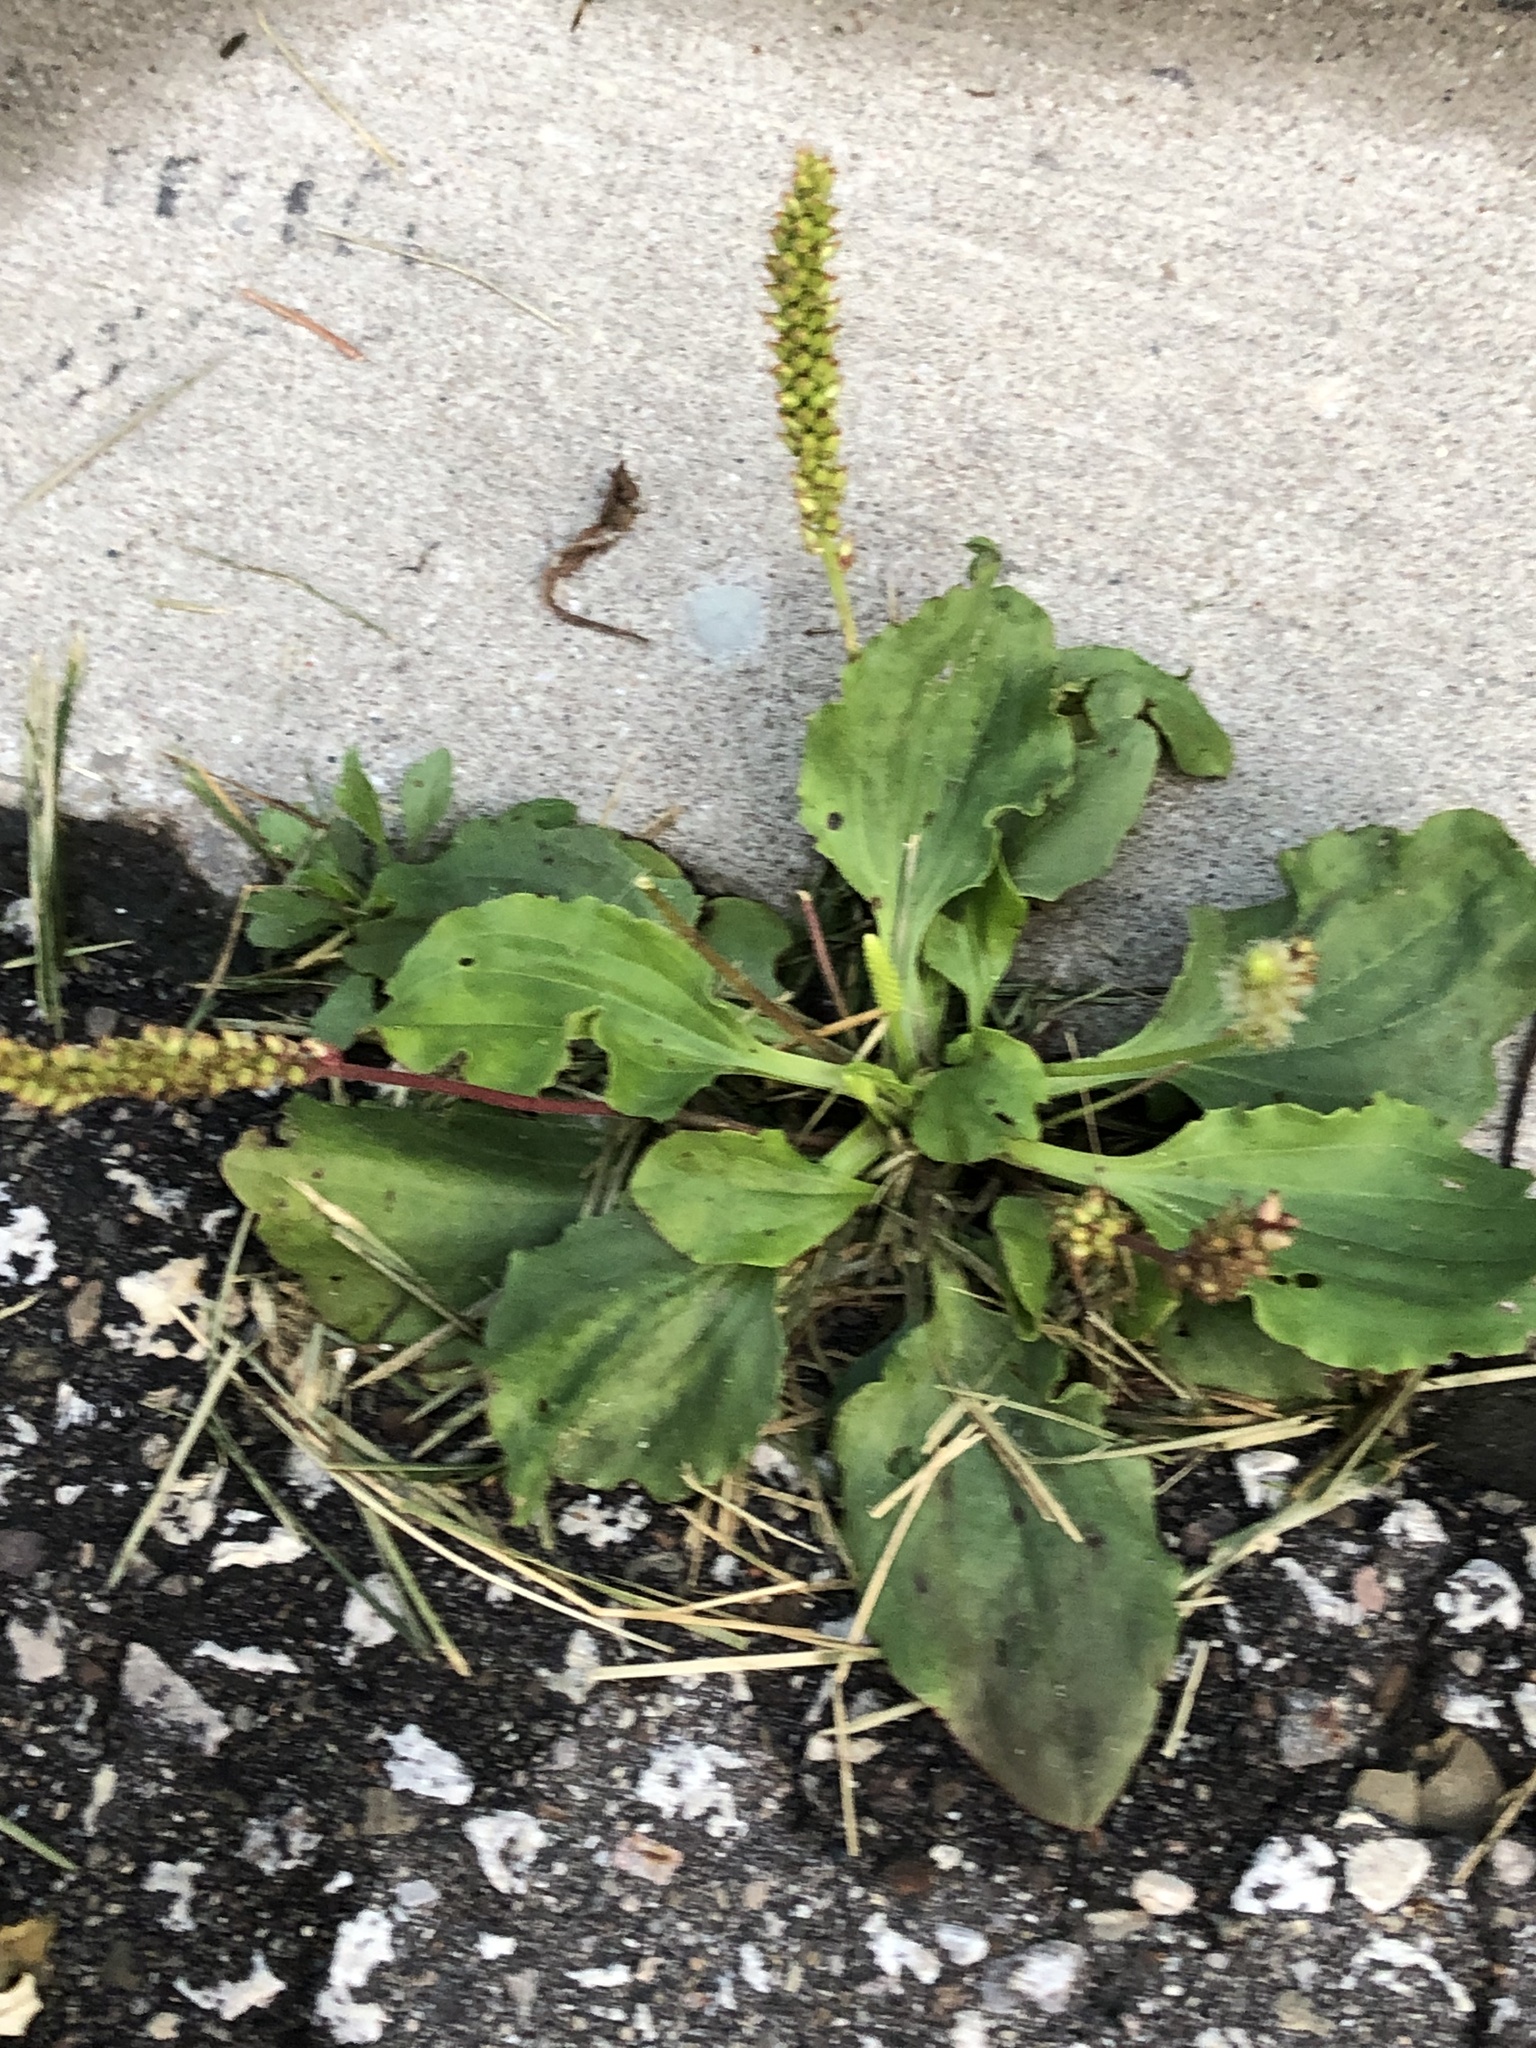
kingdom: Plantae
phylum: Tracheophyta
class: Magnoliopsida
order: Lamiales
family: Plantaginaceae
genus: Plantago
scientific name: Plantago major
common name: Common plantain
